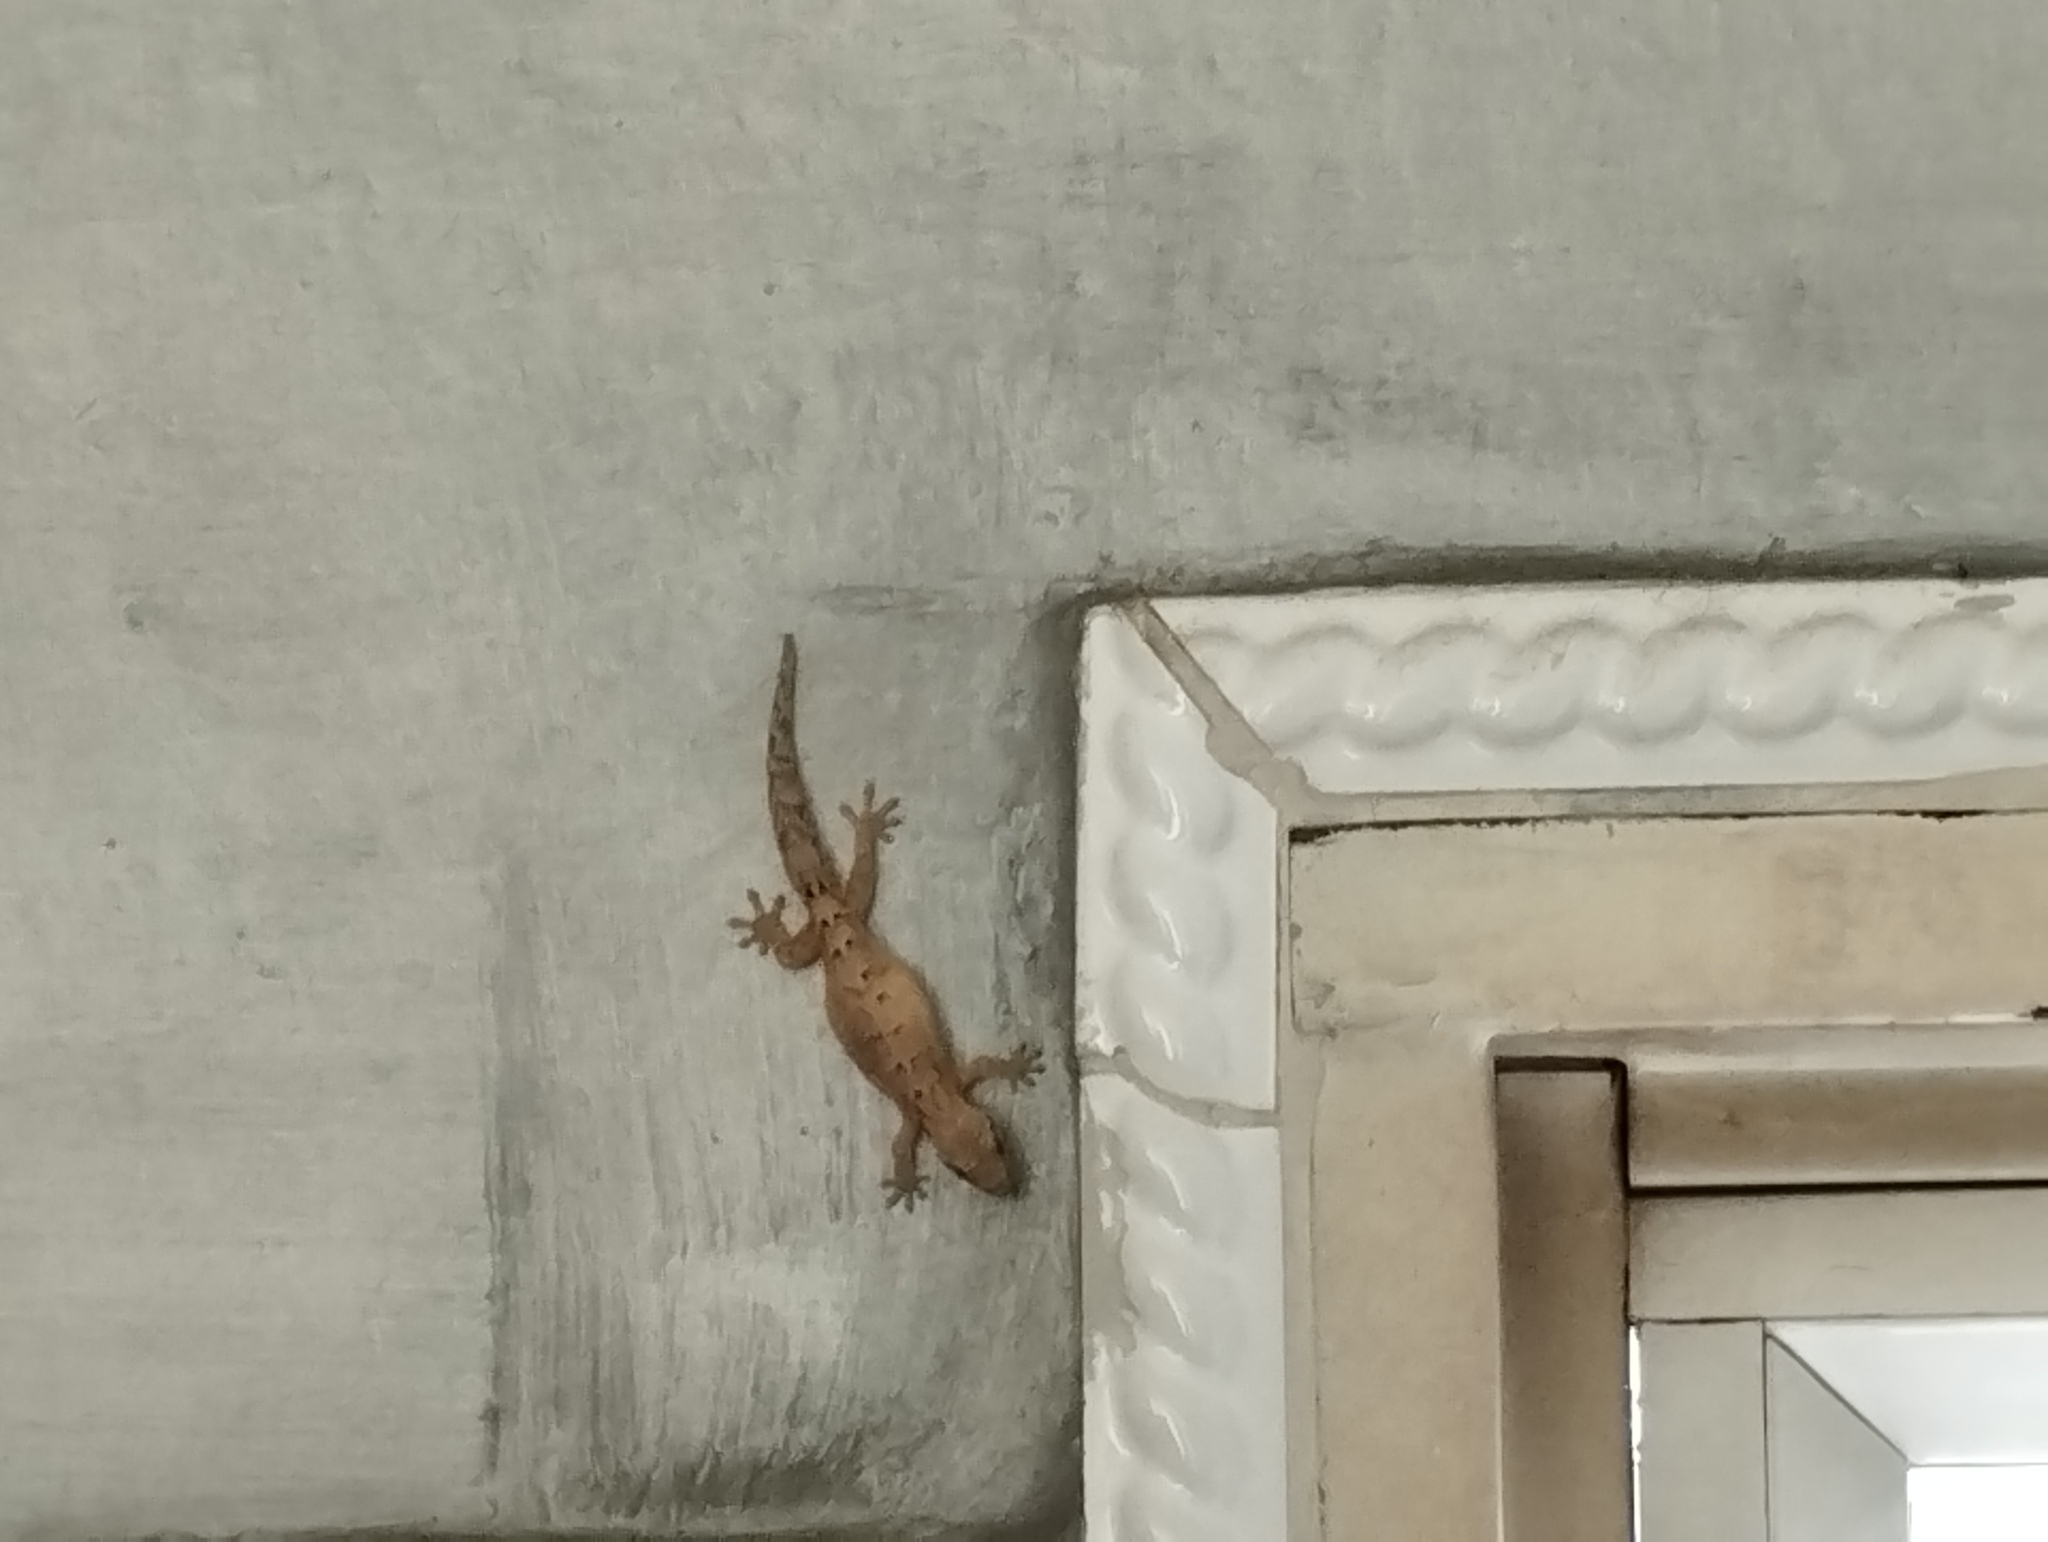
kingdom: Animalia
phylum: Chordata
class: Squamata
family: Gekkonidae
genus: Lepidodactylus
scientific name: Lepidodactylus lugubris
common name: Mourning gecko
